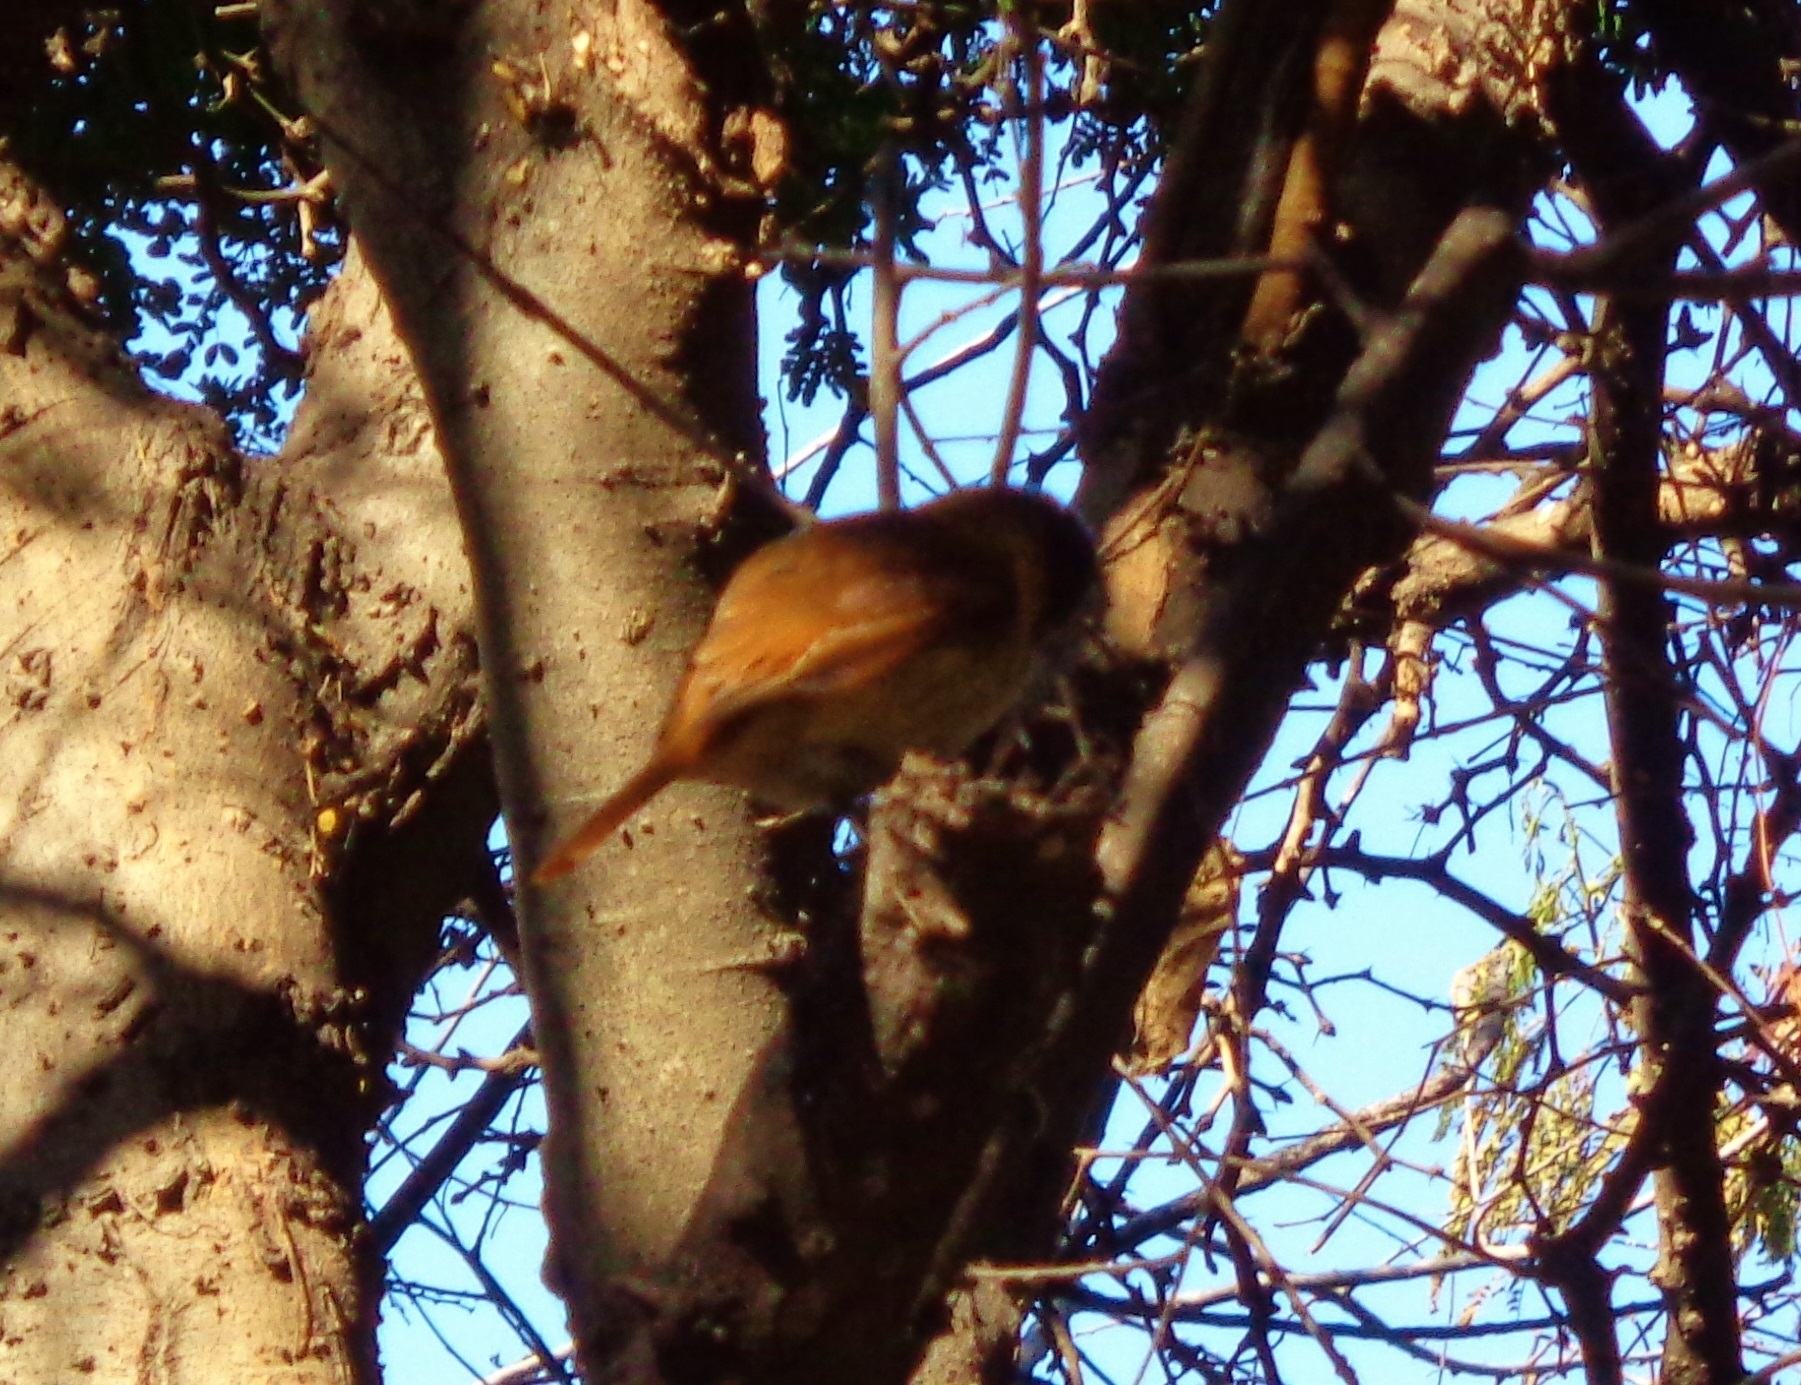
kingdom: Animalia
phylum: Chordata
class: Aves
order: Passeriformes
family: Cotingidae
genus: Pachyramphus
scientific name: Pachyramphus aglaiae
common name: Rose-throated becard
